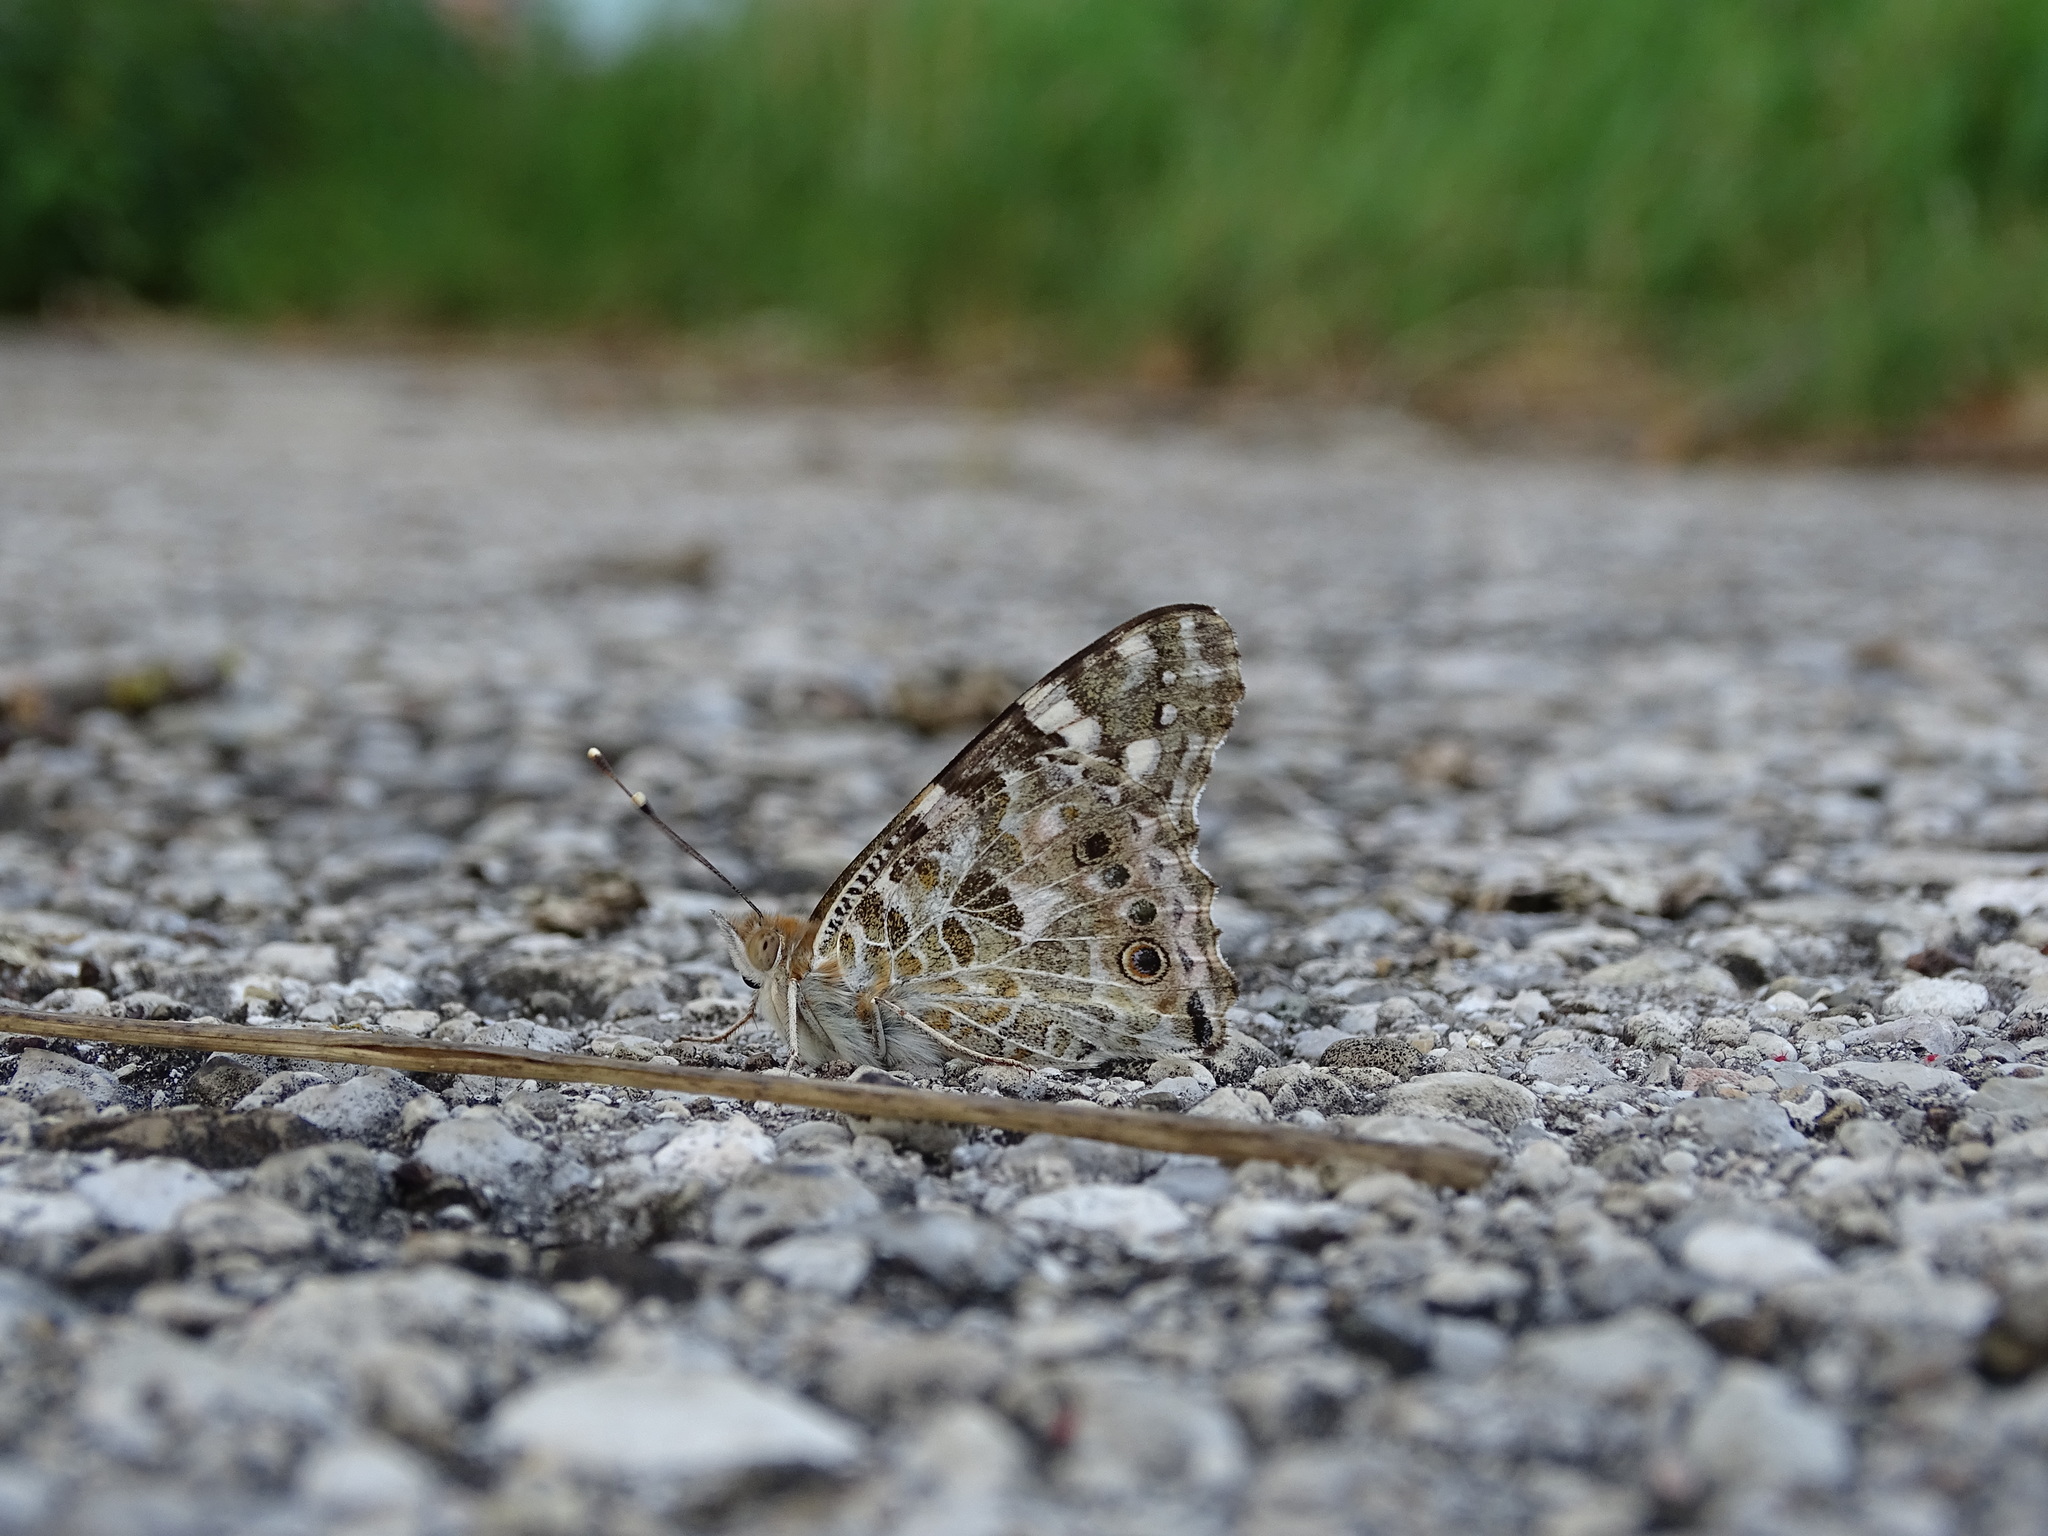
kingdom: Animalia
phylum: Arthropoda
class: Insecta
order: Lepidoptera
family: Nymphalidae
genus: Vanessa
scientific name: Vanessa cardui
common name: Painted lady
